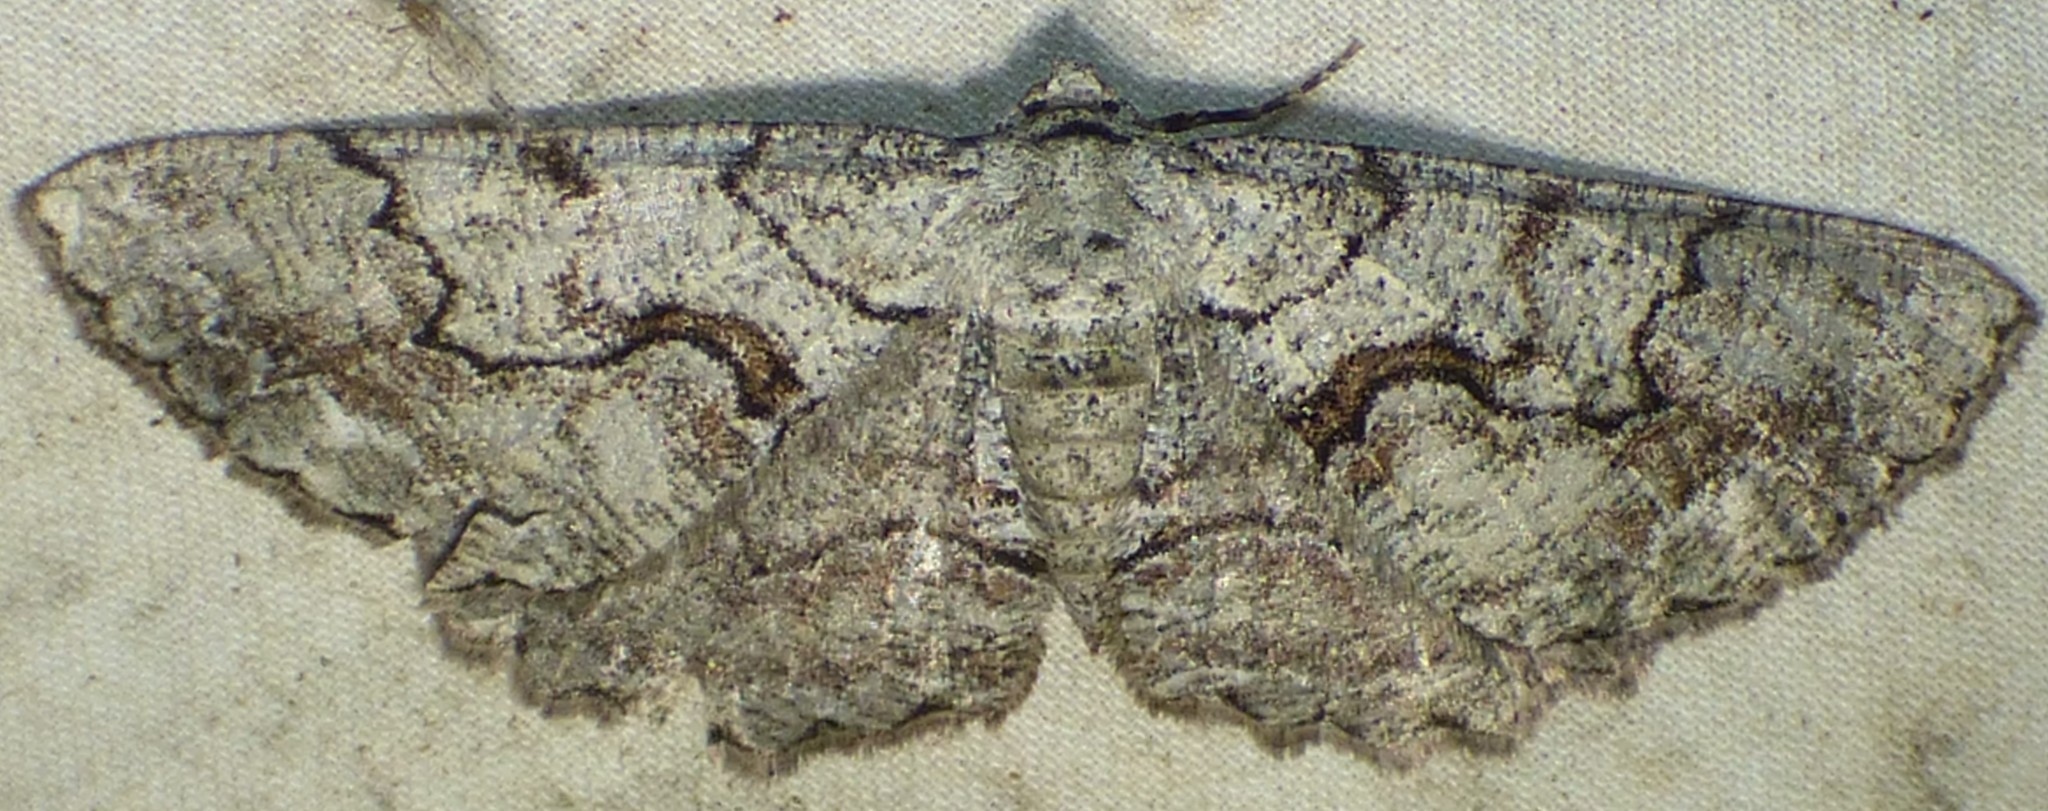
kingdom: Animalia
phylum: Arthropoda
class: Insecta
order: Lepidoptera
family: Geometridae
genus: Cymatophora
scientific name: Cymatophora approximaria
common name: Giant gray moth
